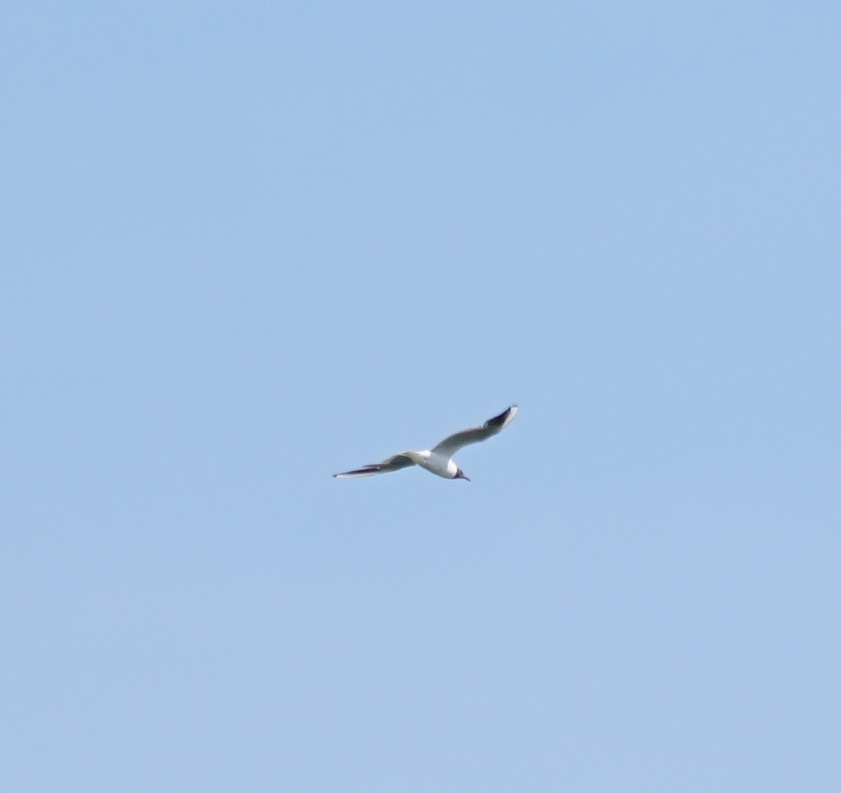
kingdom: Animalia
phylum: Chordata
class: Aves
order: Charadriiformes
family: Laridae
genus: Chroicocephalus
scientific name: Chroicocephalus ridibundus
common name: Black-headed gull
